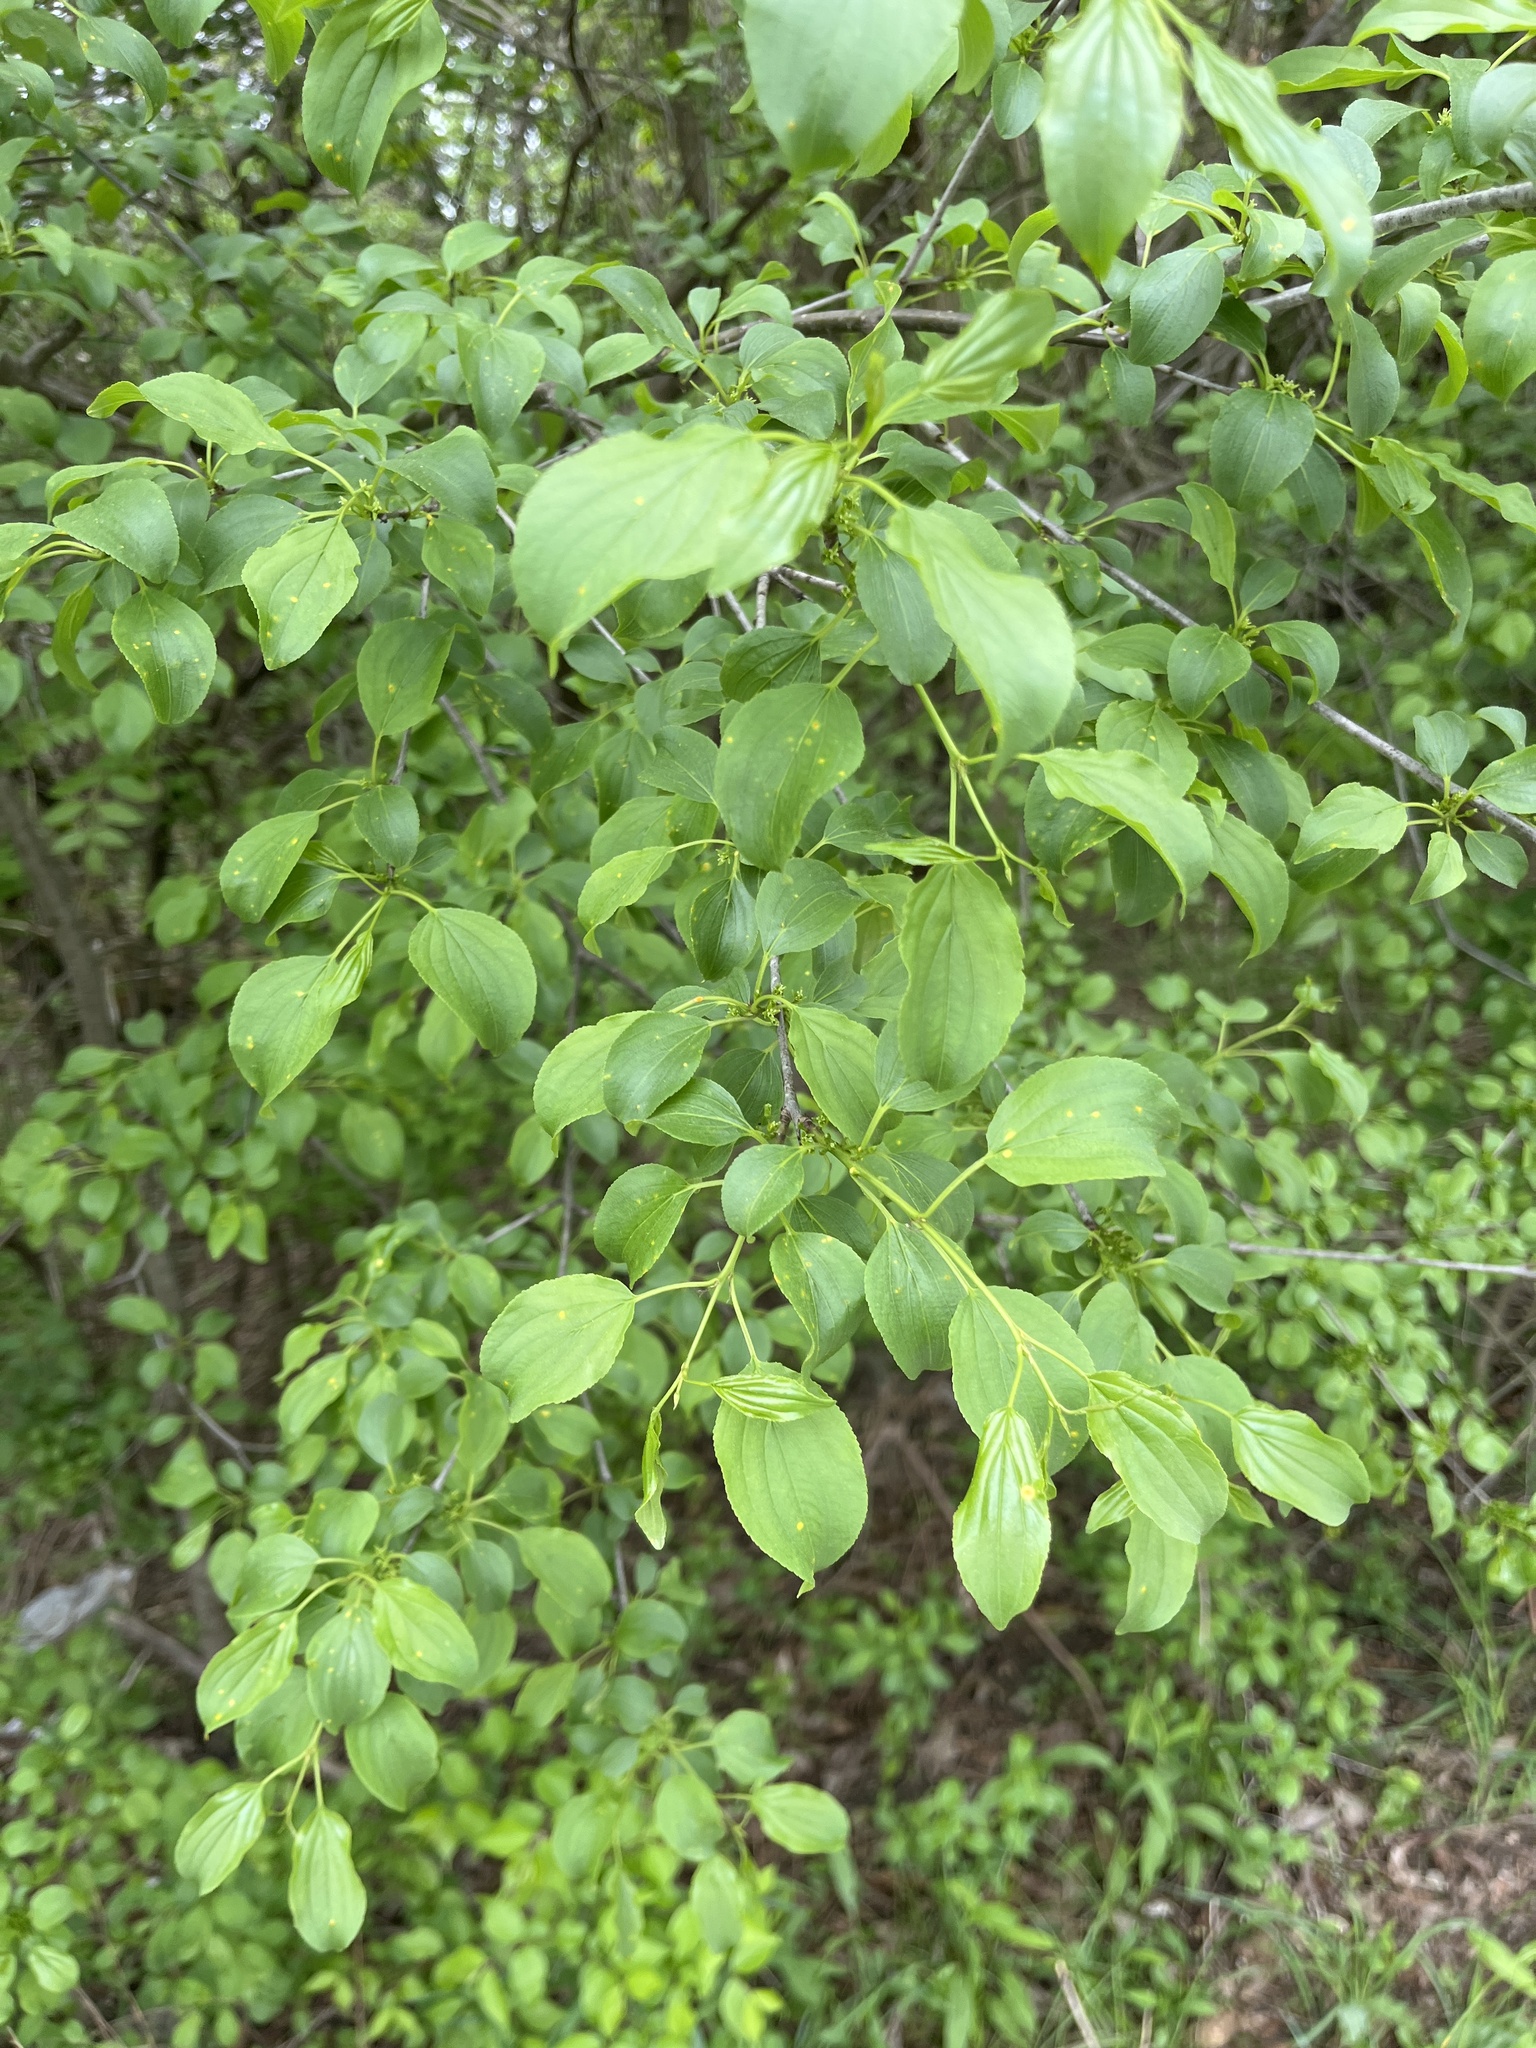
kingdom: Plantae
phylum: Tracheophyta
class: Magnoliopsida
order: Rosales
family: Rhamnaceae
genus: Rhamnus
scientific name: Rhamnus cathartica
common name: Common buckthorn
